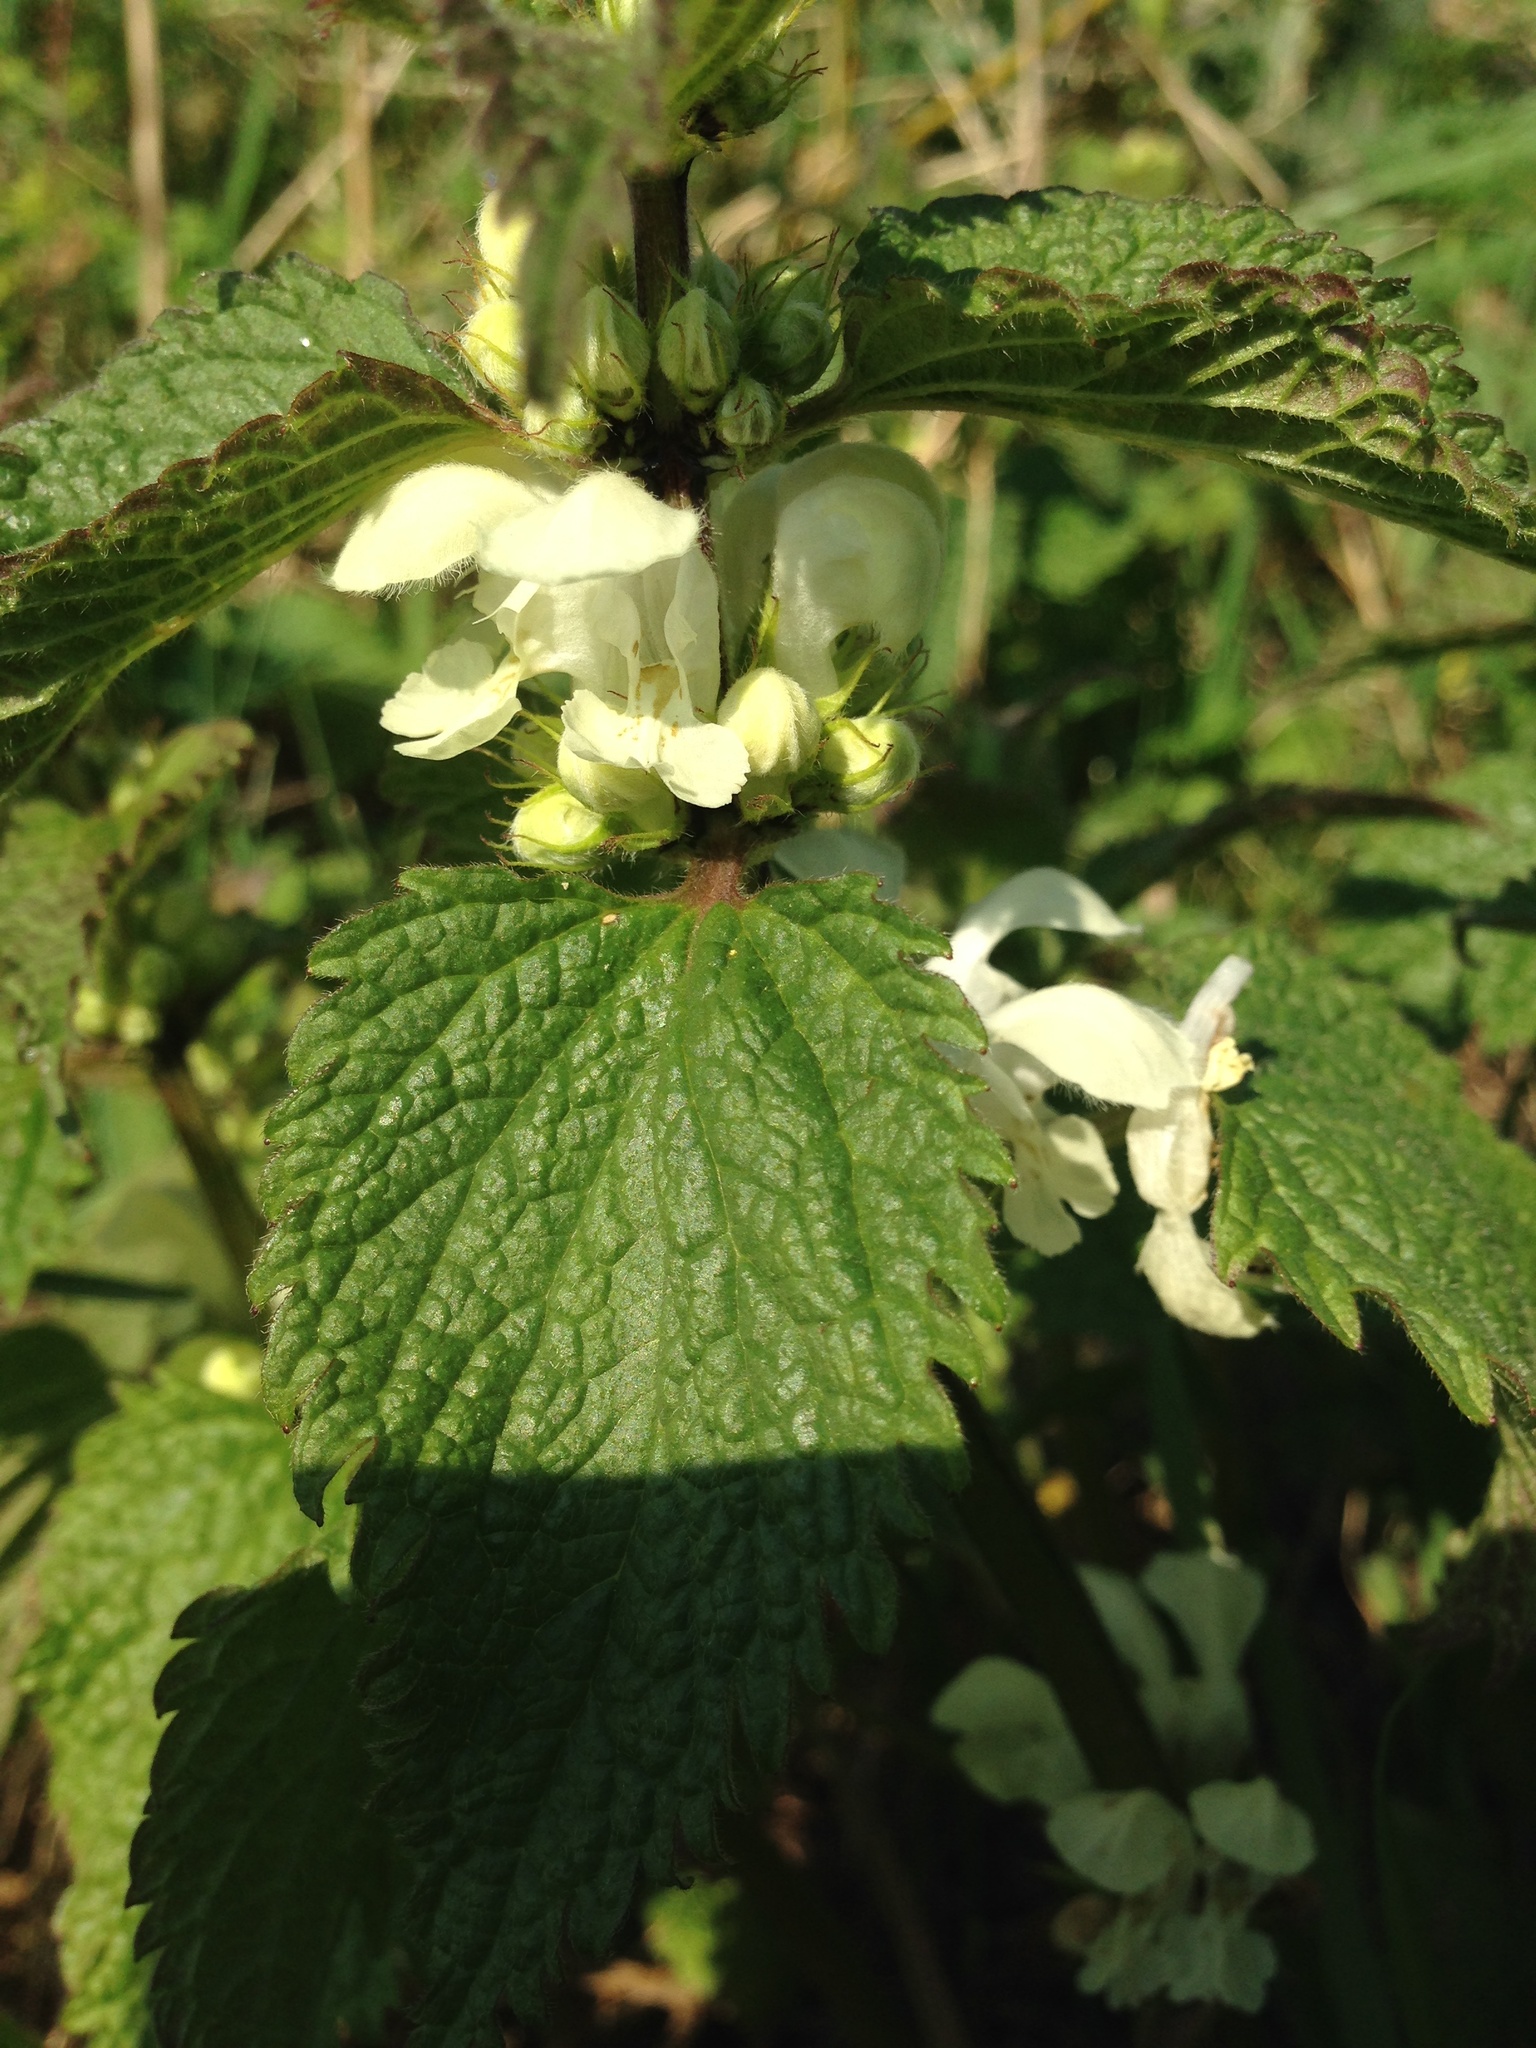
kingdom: Plantae
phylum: Tracheophyta
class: Magnoliopsida
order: Lamiales
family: Lamiaceae
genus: Lamium
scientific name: Lamium album
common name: White dead-nettle
